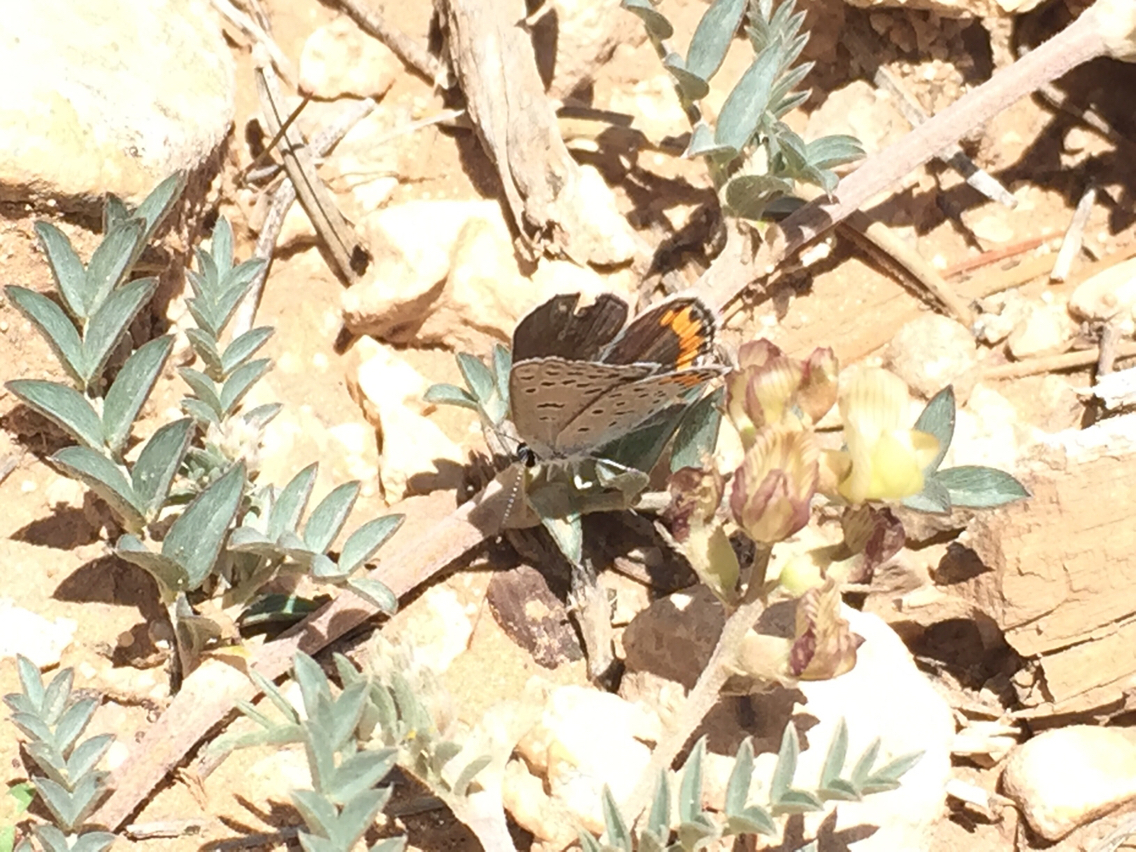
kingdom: Animalia
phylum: Arthropoda
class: Insecta
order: Lepidoptera
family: Lycaenidae
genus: Icaricia
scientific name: Icaricia lupini
